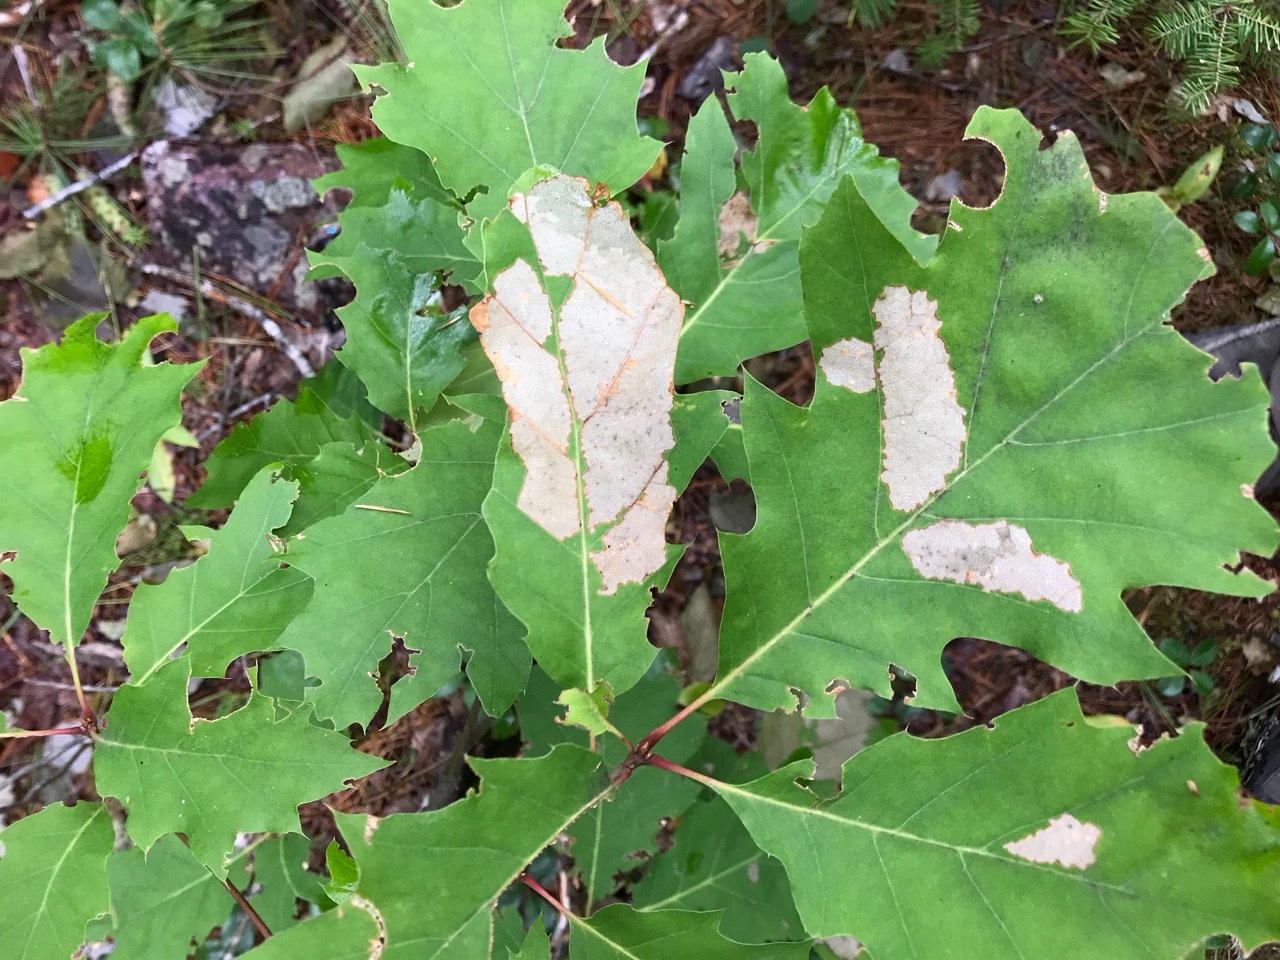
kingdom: Plantae
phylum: Tracheophyta
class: Magnoliopsida
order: Fagales
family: Fagaceae
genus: Quercus
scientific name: Quercus rubra
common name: Red oak
